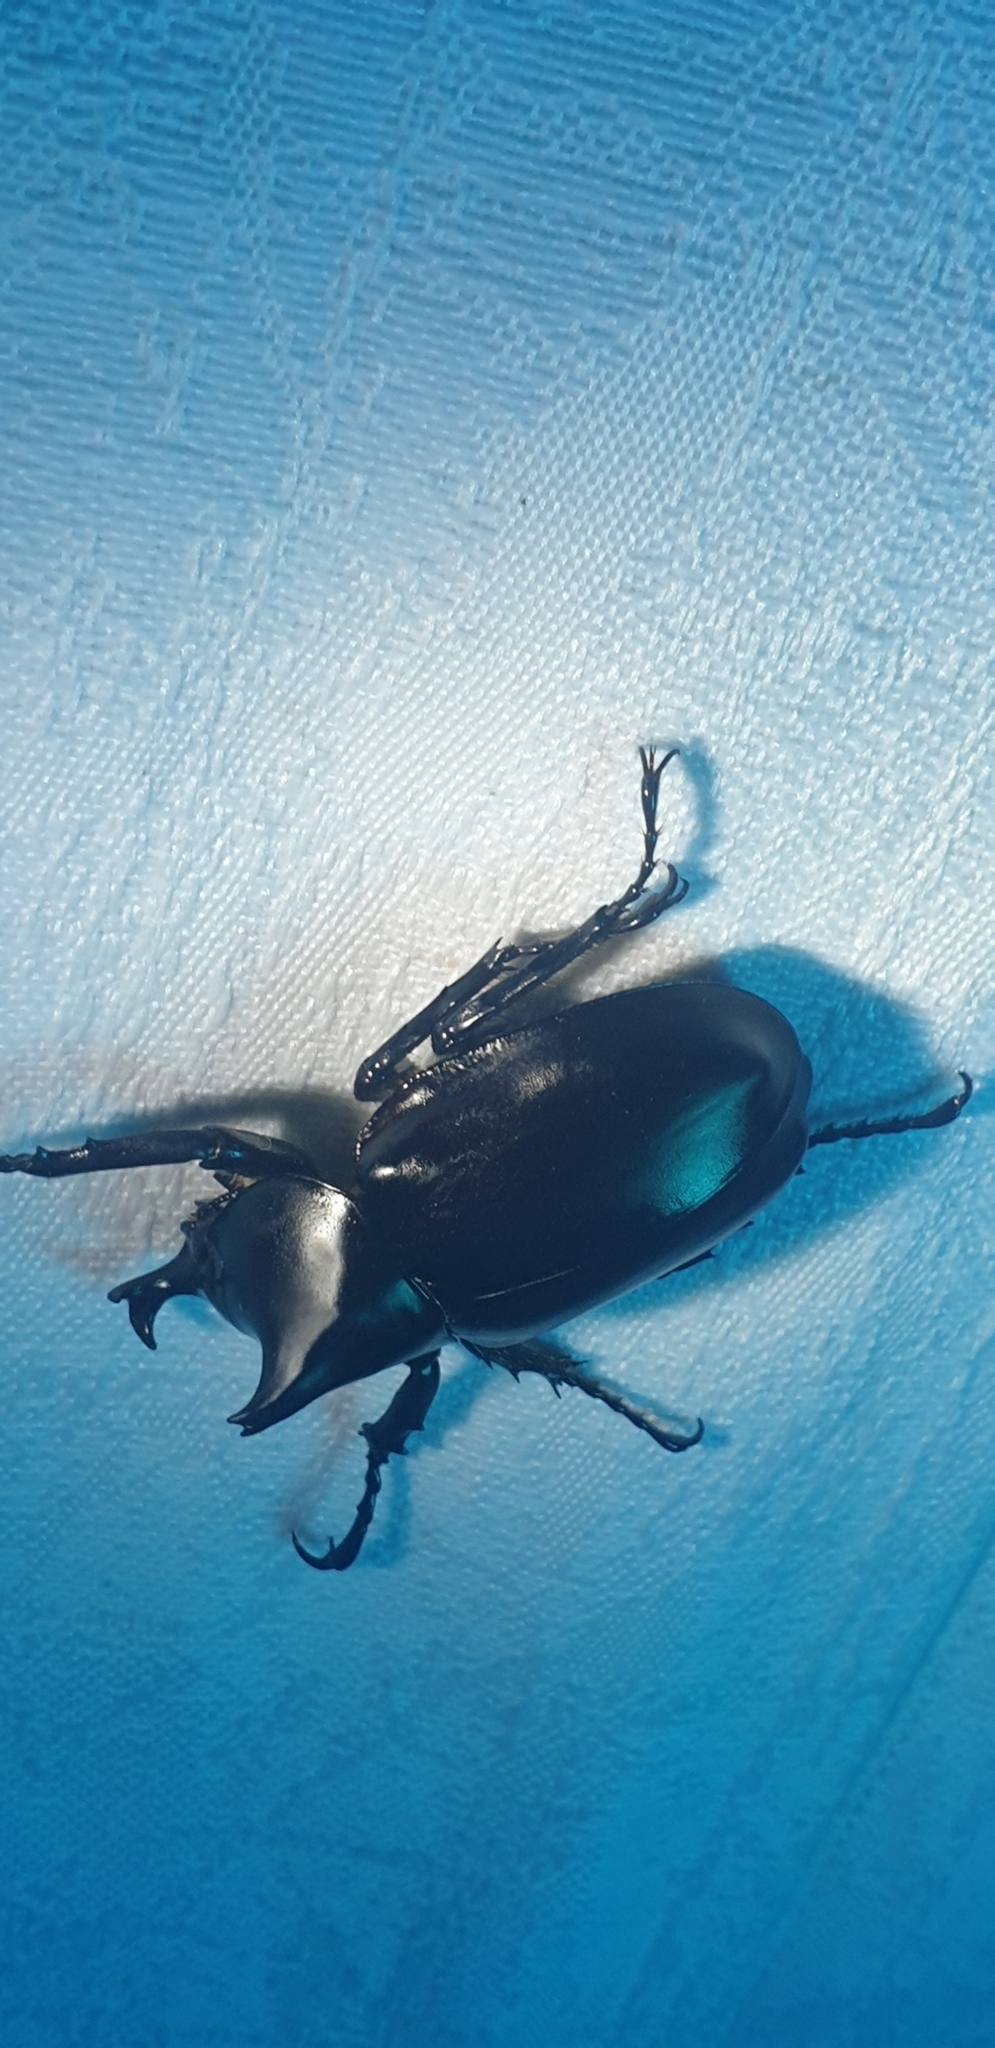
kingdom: Animalia
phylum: Arthropoda
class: Insecta
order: Coleoptera
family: Scarabaeidae
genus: Xylotrupes
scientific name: Xylotrupes australicus
